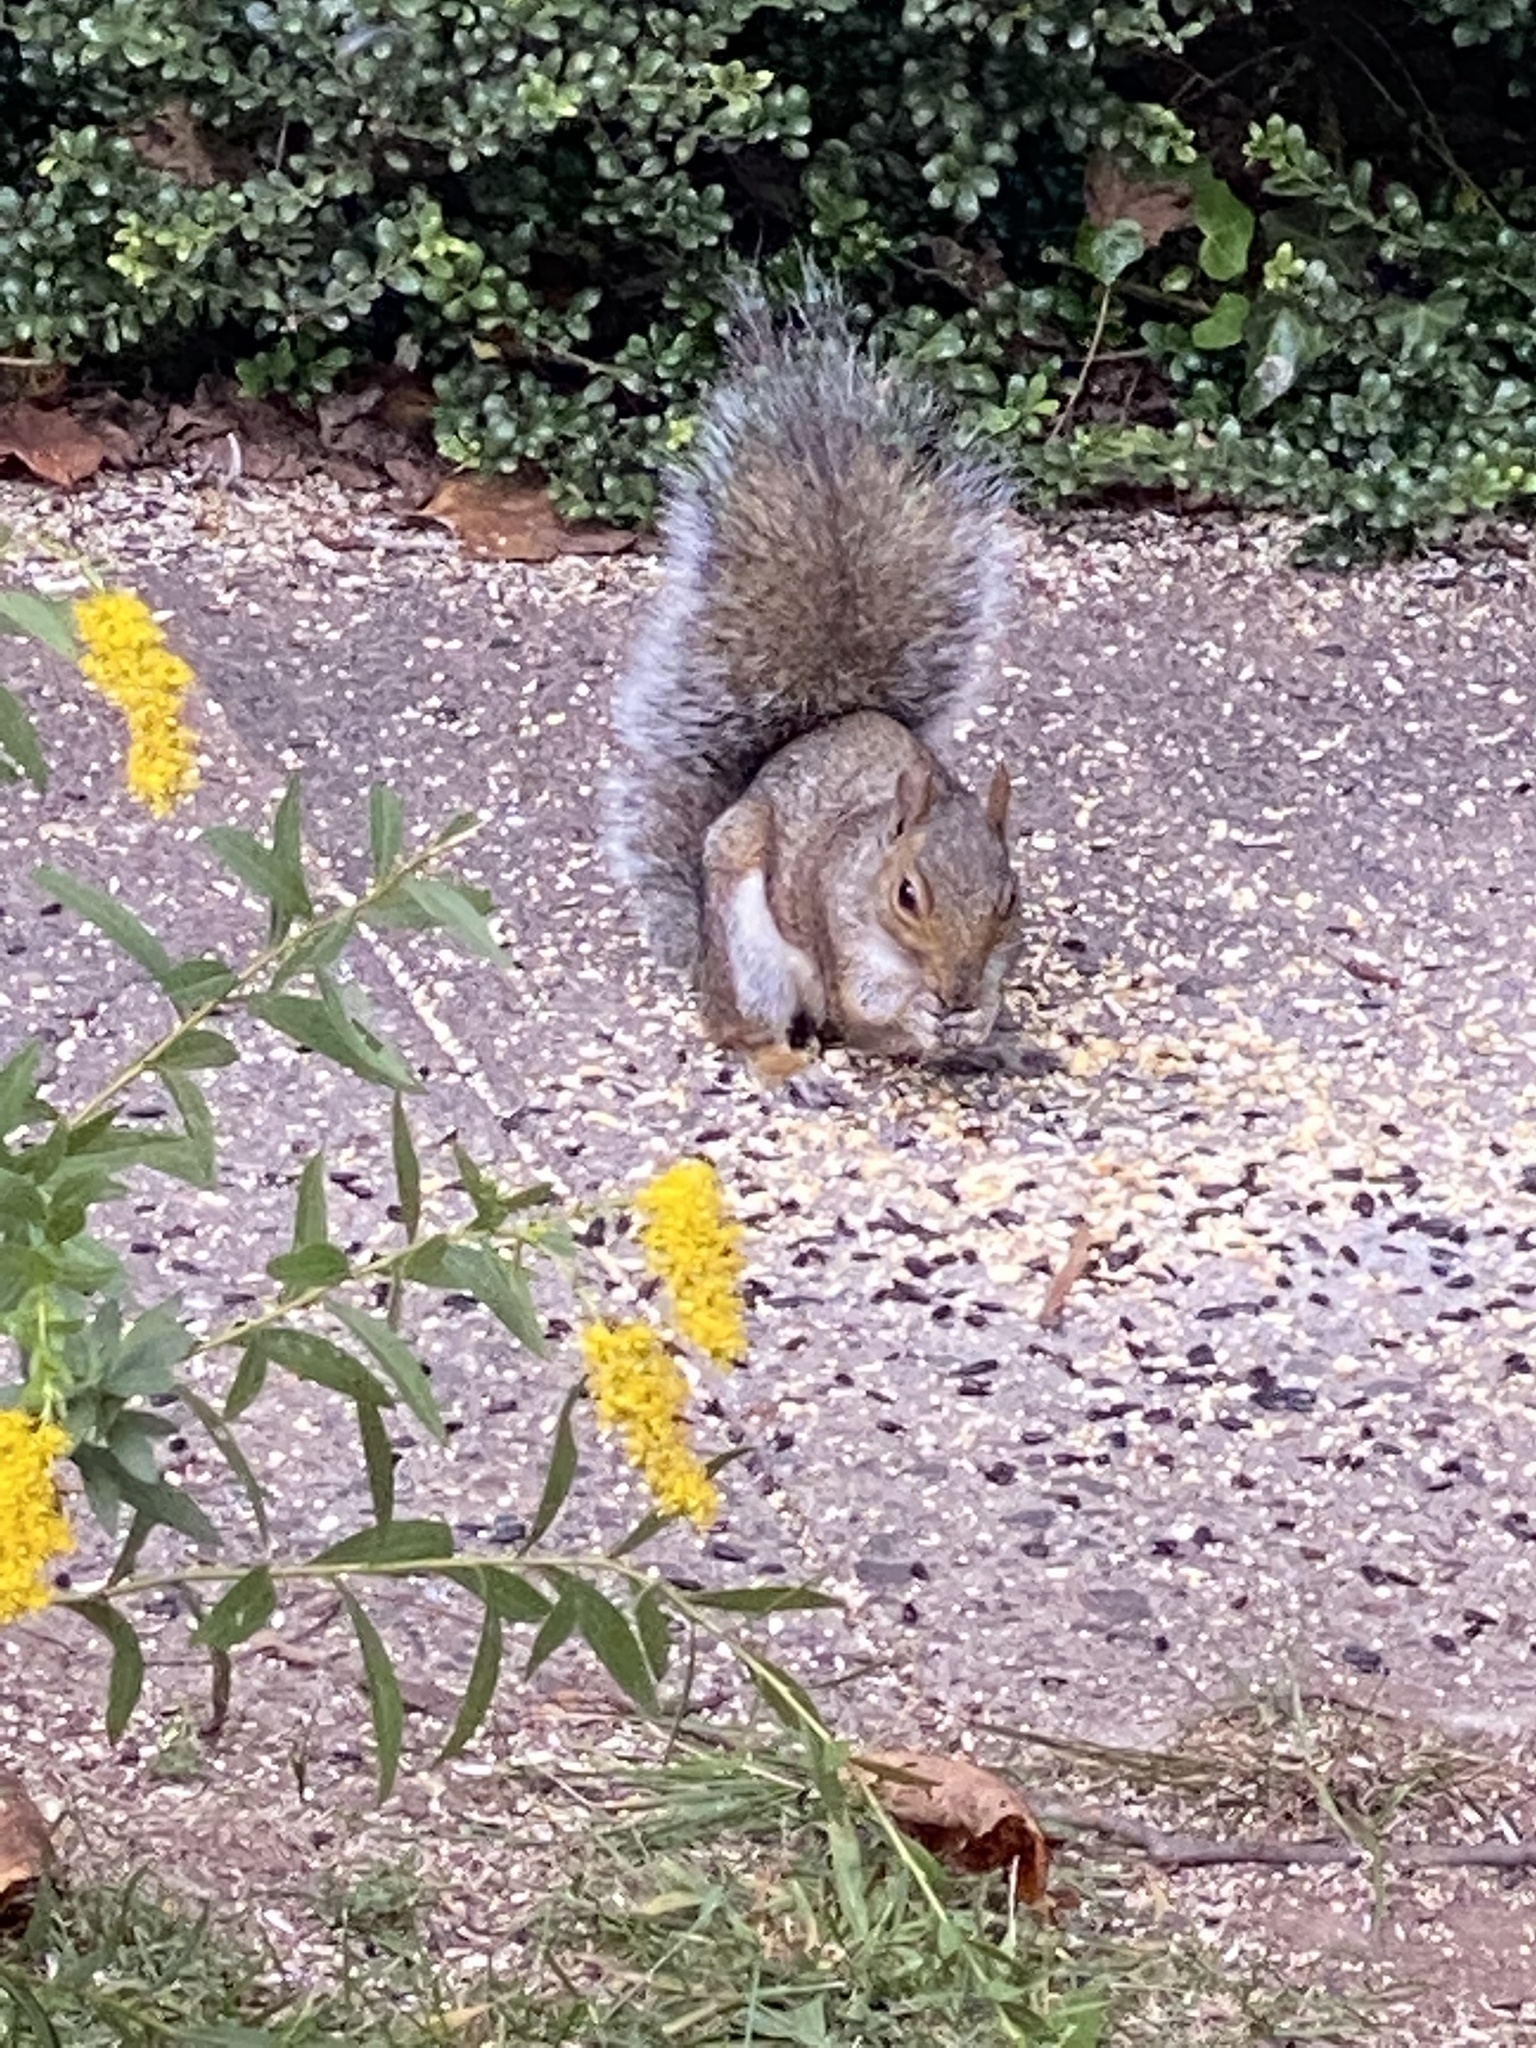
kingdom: Animalia
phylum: Chordata
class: Mammalia
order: Rodentia
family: Sciuridae
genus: Sciurus
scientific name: Sciurus carolinensis
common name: Eastern gray squirrel
